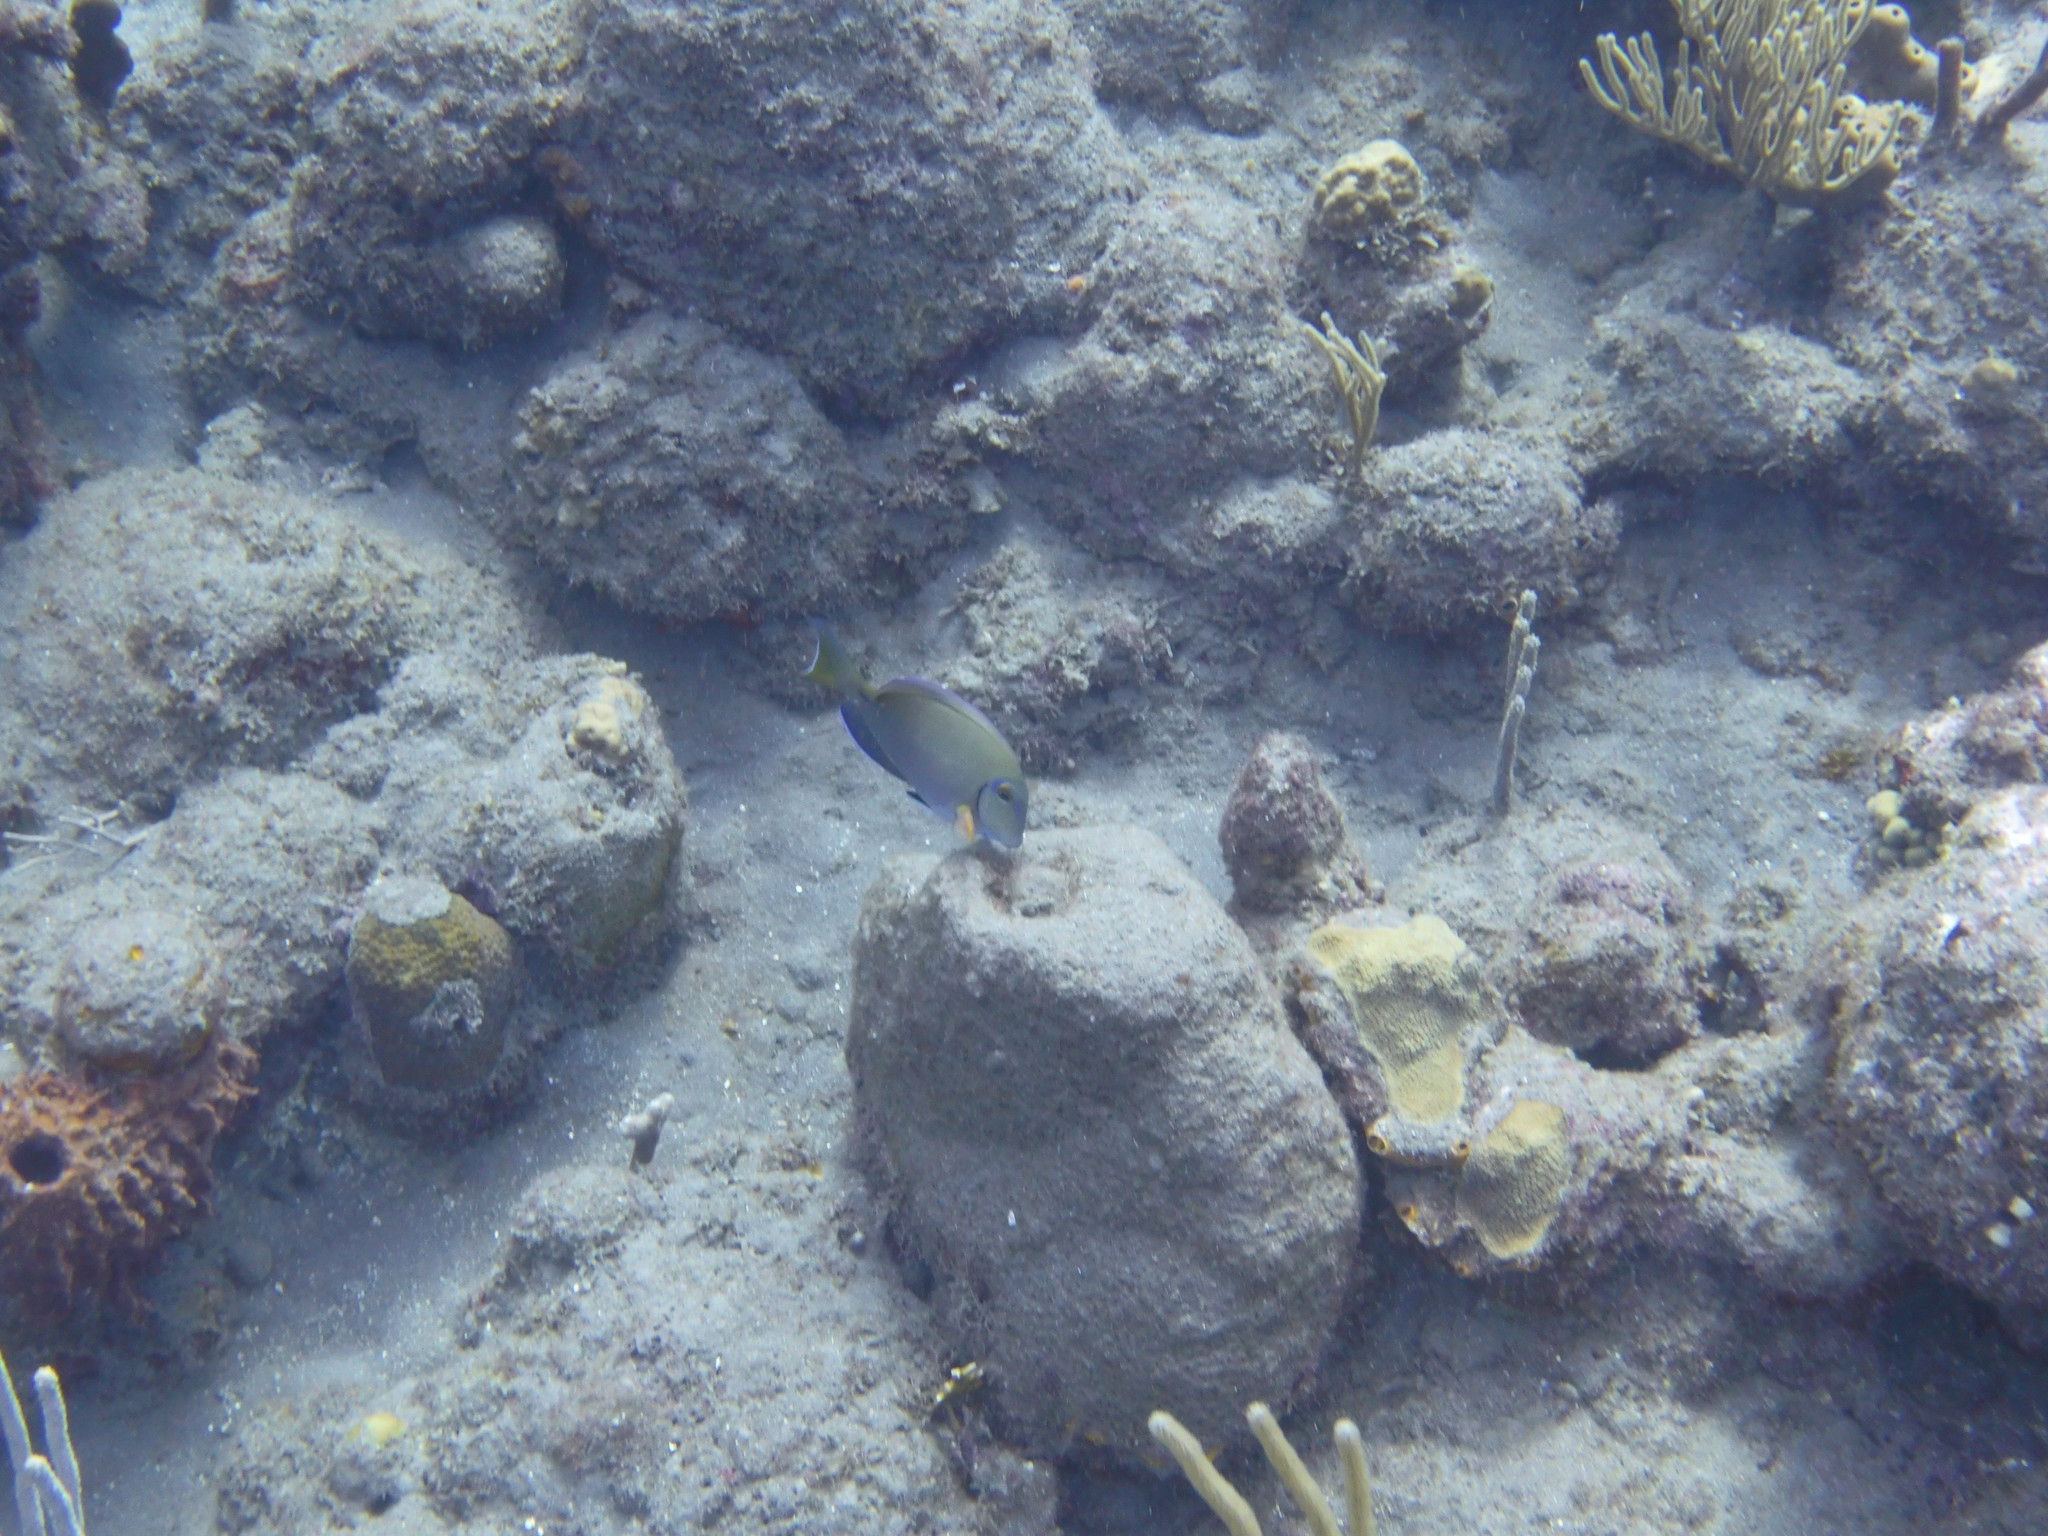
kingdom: Animalia
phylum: Chordata
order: Perciformes
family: Acanthuridae
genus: Acanthurus
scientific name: Acanthurus bahianus
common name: Ocean surgeon
